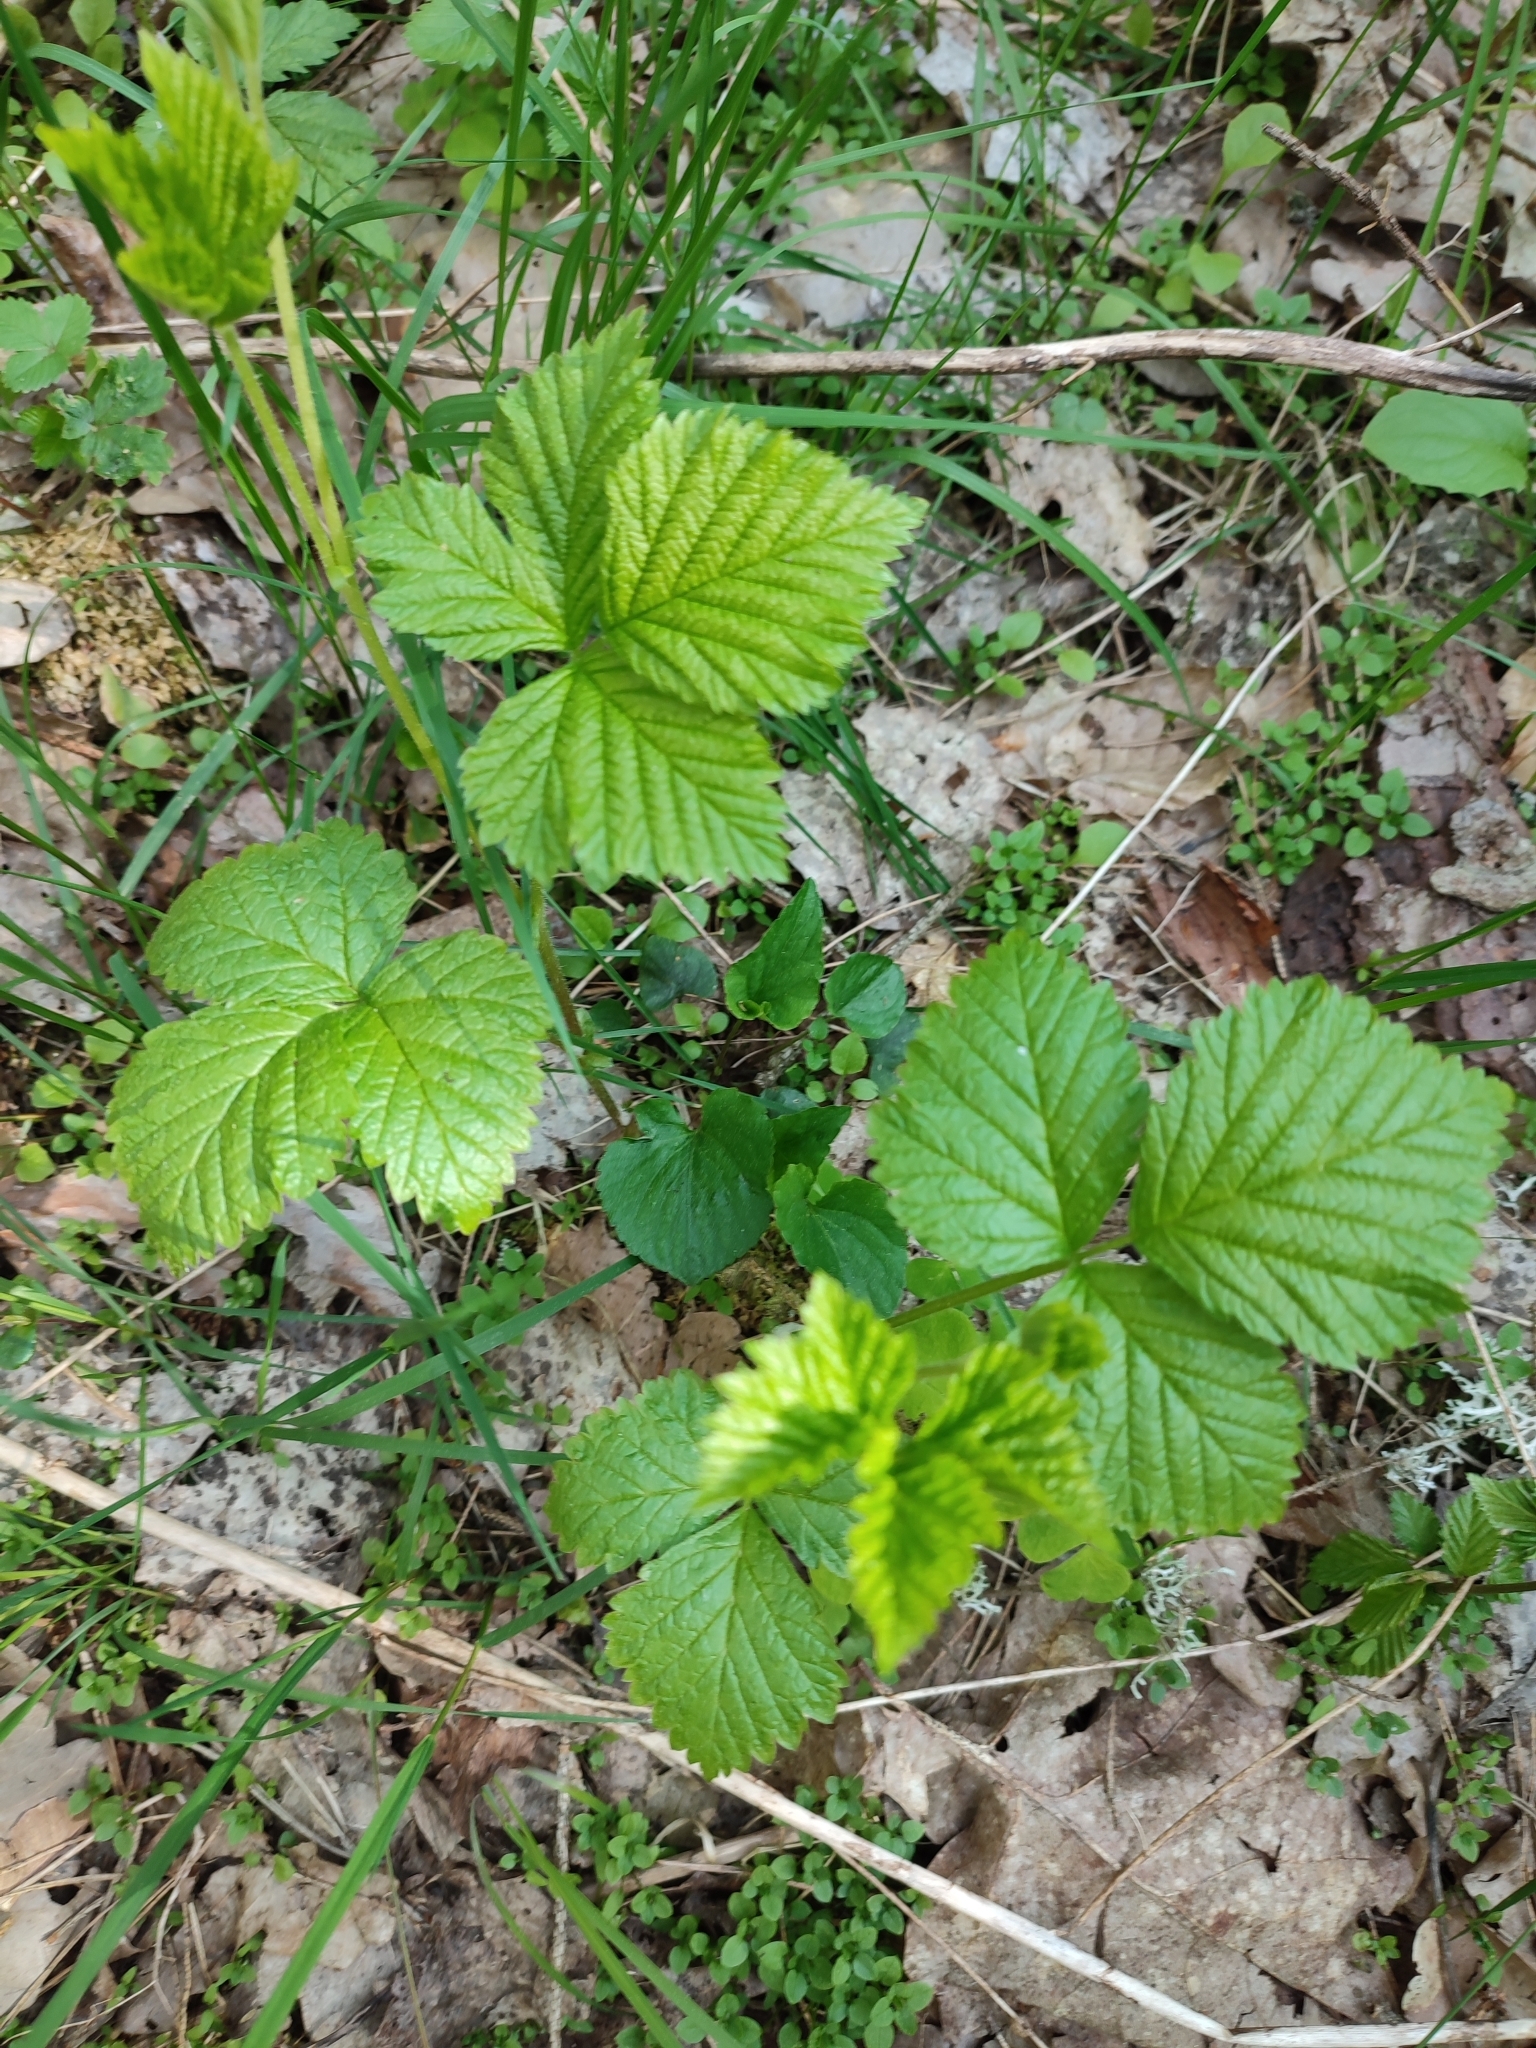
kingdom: Plantae
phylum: Tracheophyta
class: Magnoliopsida
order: Rosales
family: Rosaceae
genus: Rubus
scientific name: Rubus saxatilis
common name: Stone bramble
